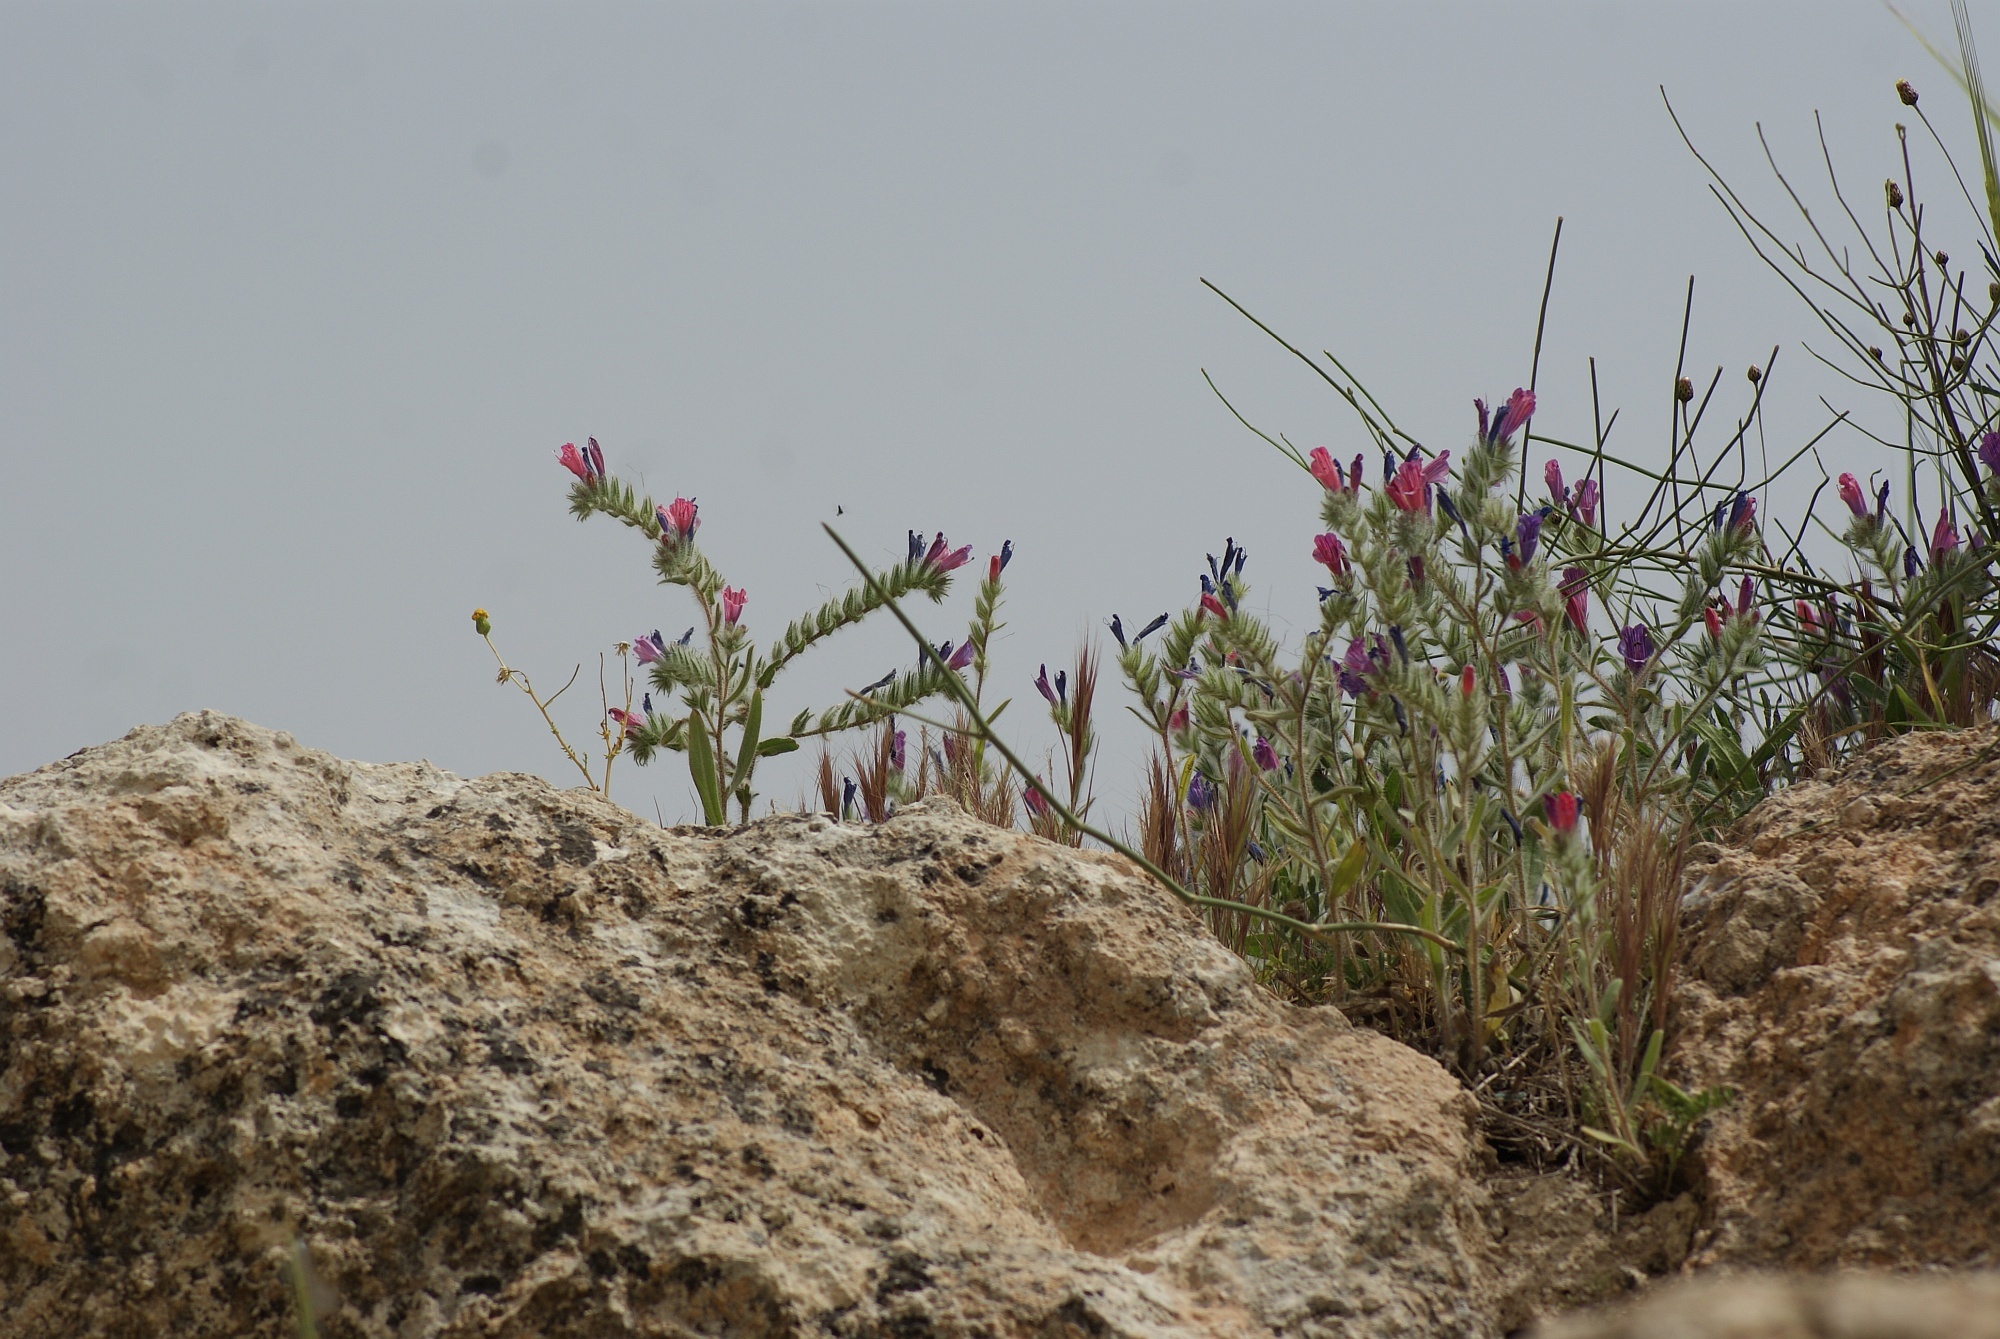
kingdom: Plantae
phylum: Tracheophyta
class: Magnoliopsida
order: Boraginales
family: Boraginaceae
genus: Echium
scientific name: Echium judaeum
